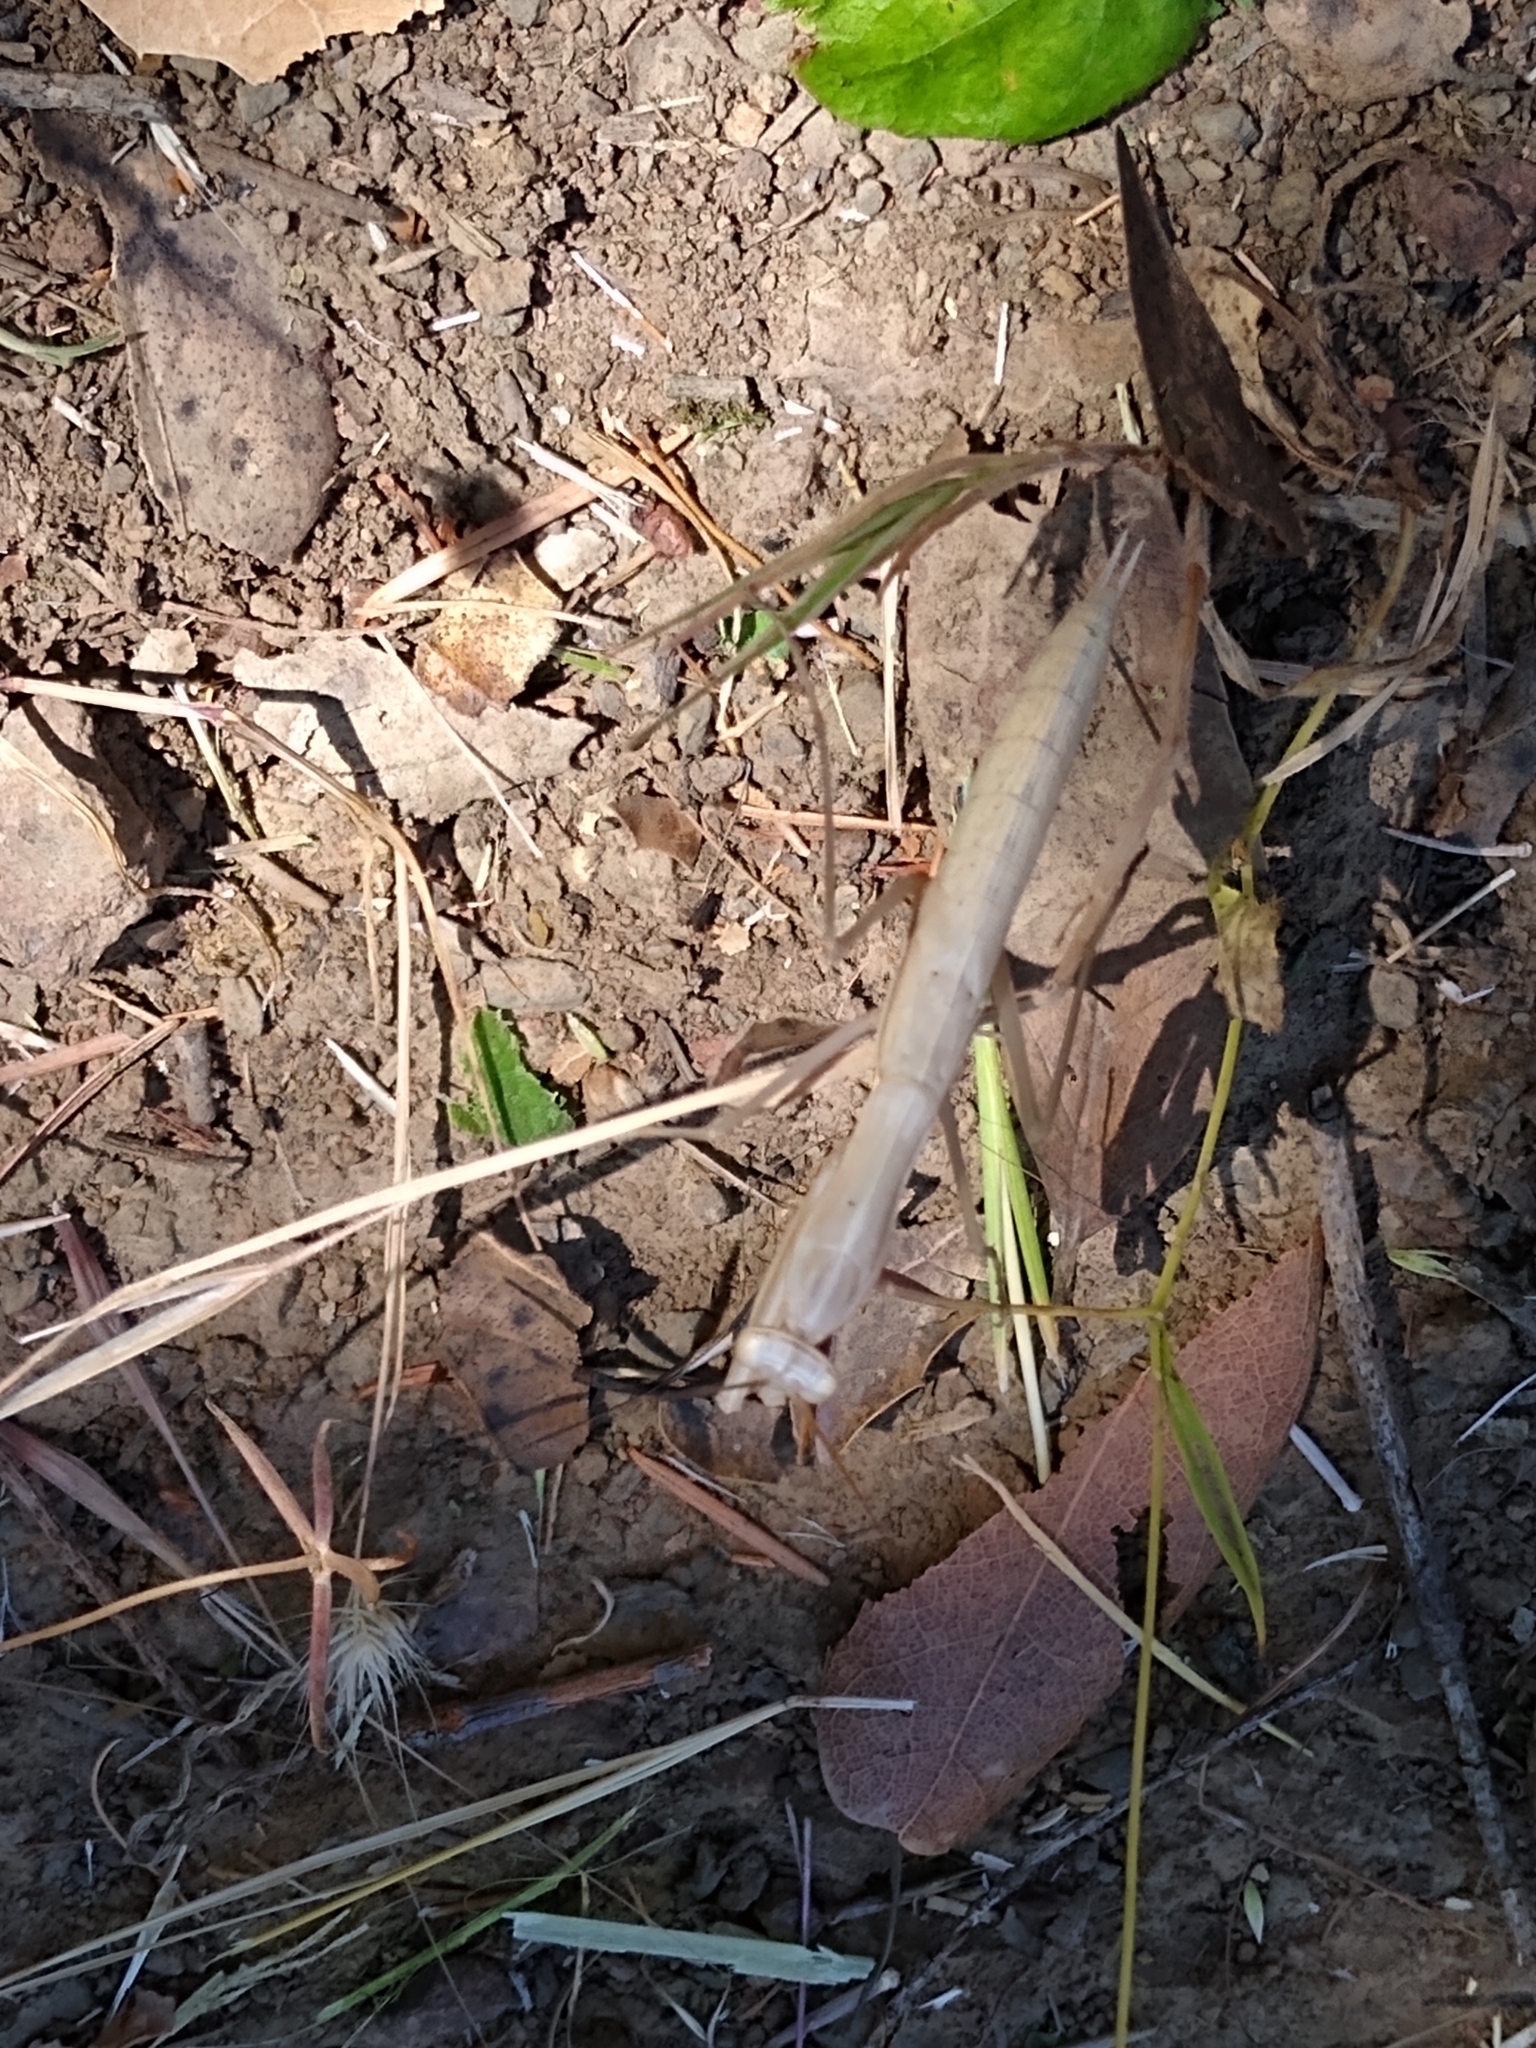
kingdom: Animalia
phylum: Arthropoda
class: Insecta
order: Mantodea
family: Mantidae
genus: Mantis
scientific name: Mantis religiosa
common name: Praying mantis
